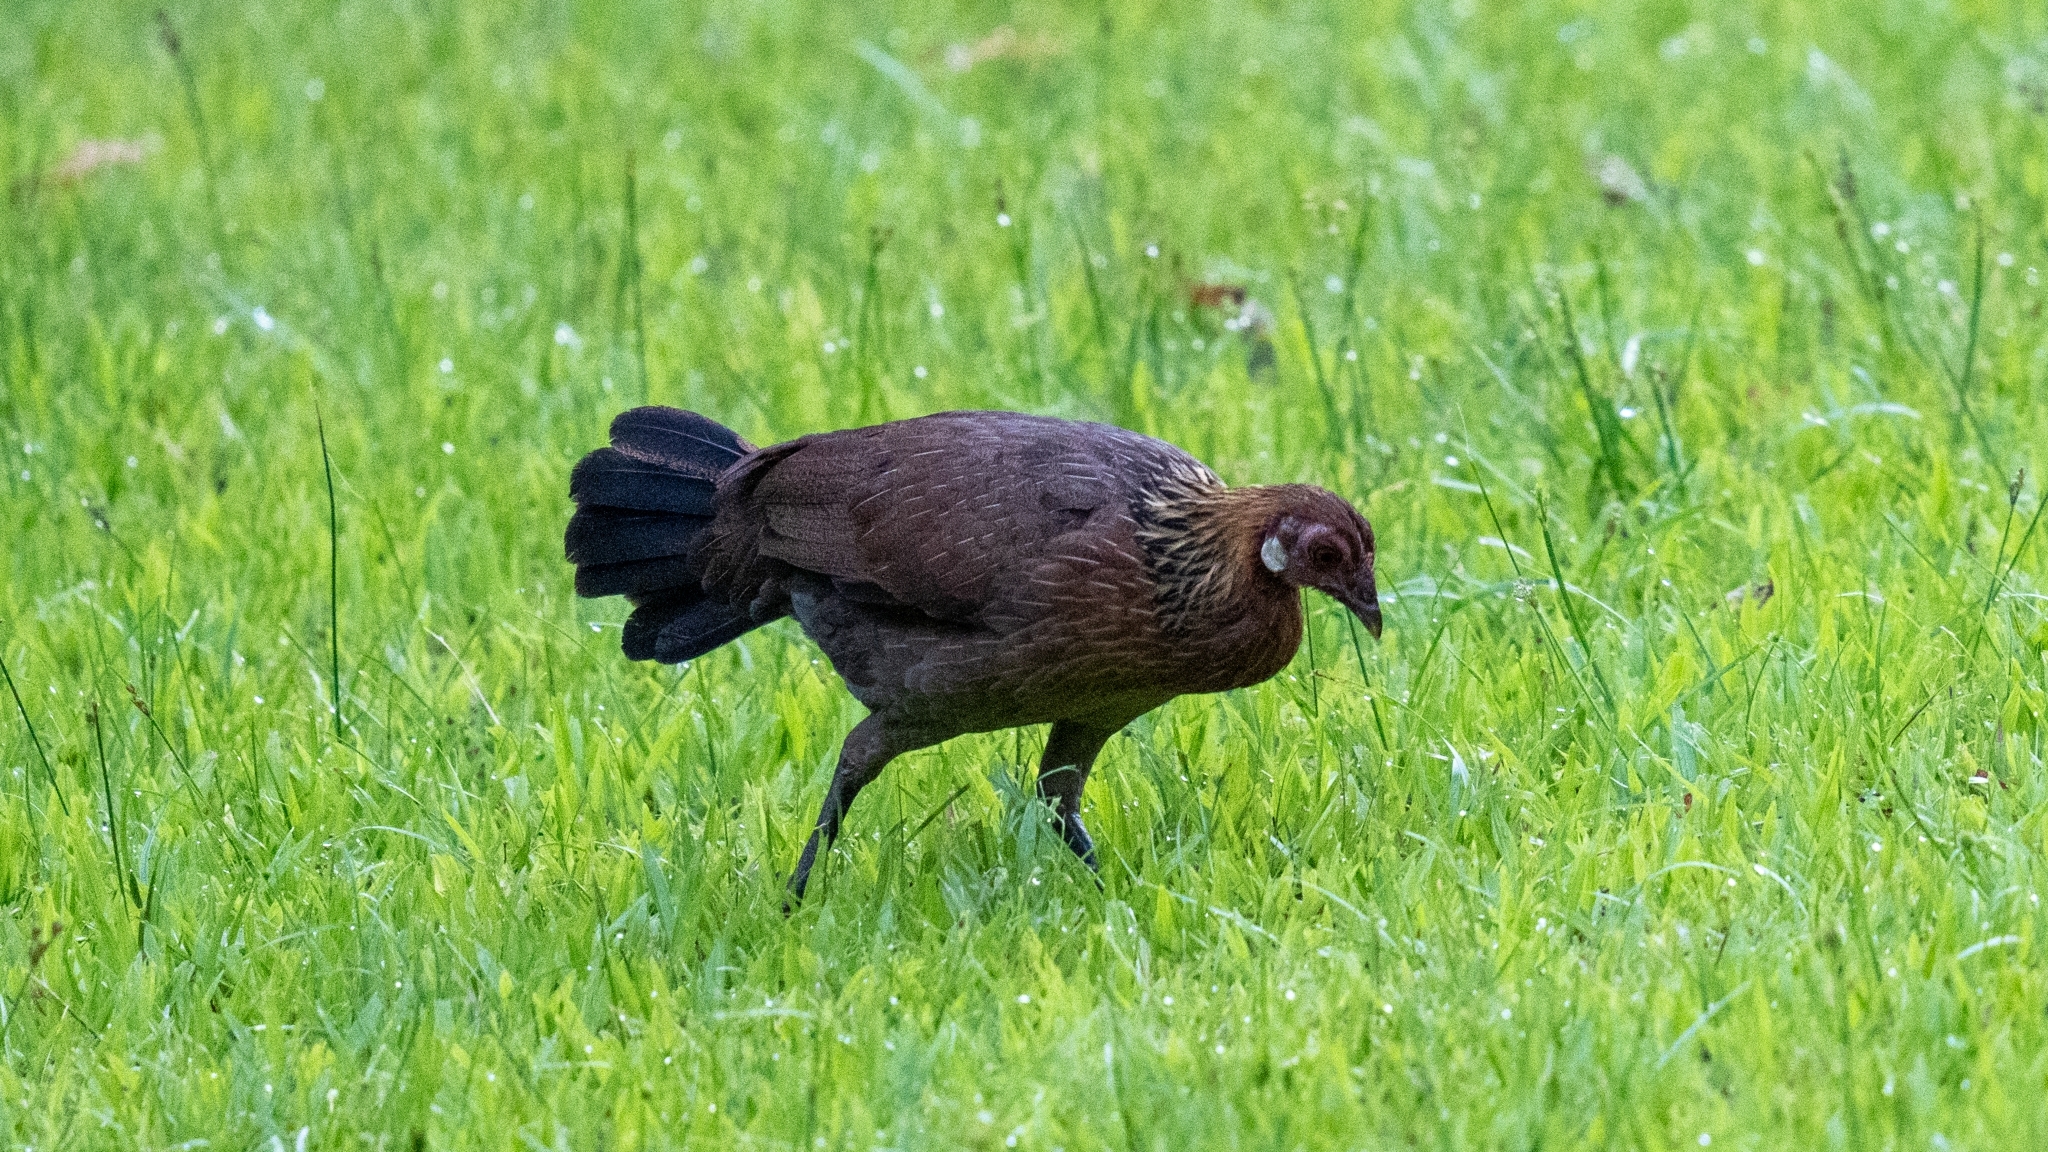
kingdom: Animalia
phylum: Chordata
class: Aves
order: Galliformes
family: Phasianidae
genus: Gallus
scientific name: Gallus gallus
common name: Red junglefowl
